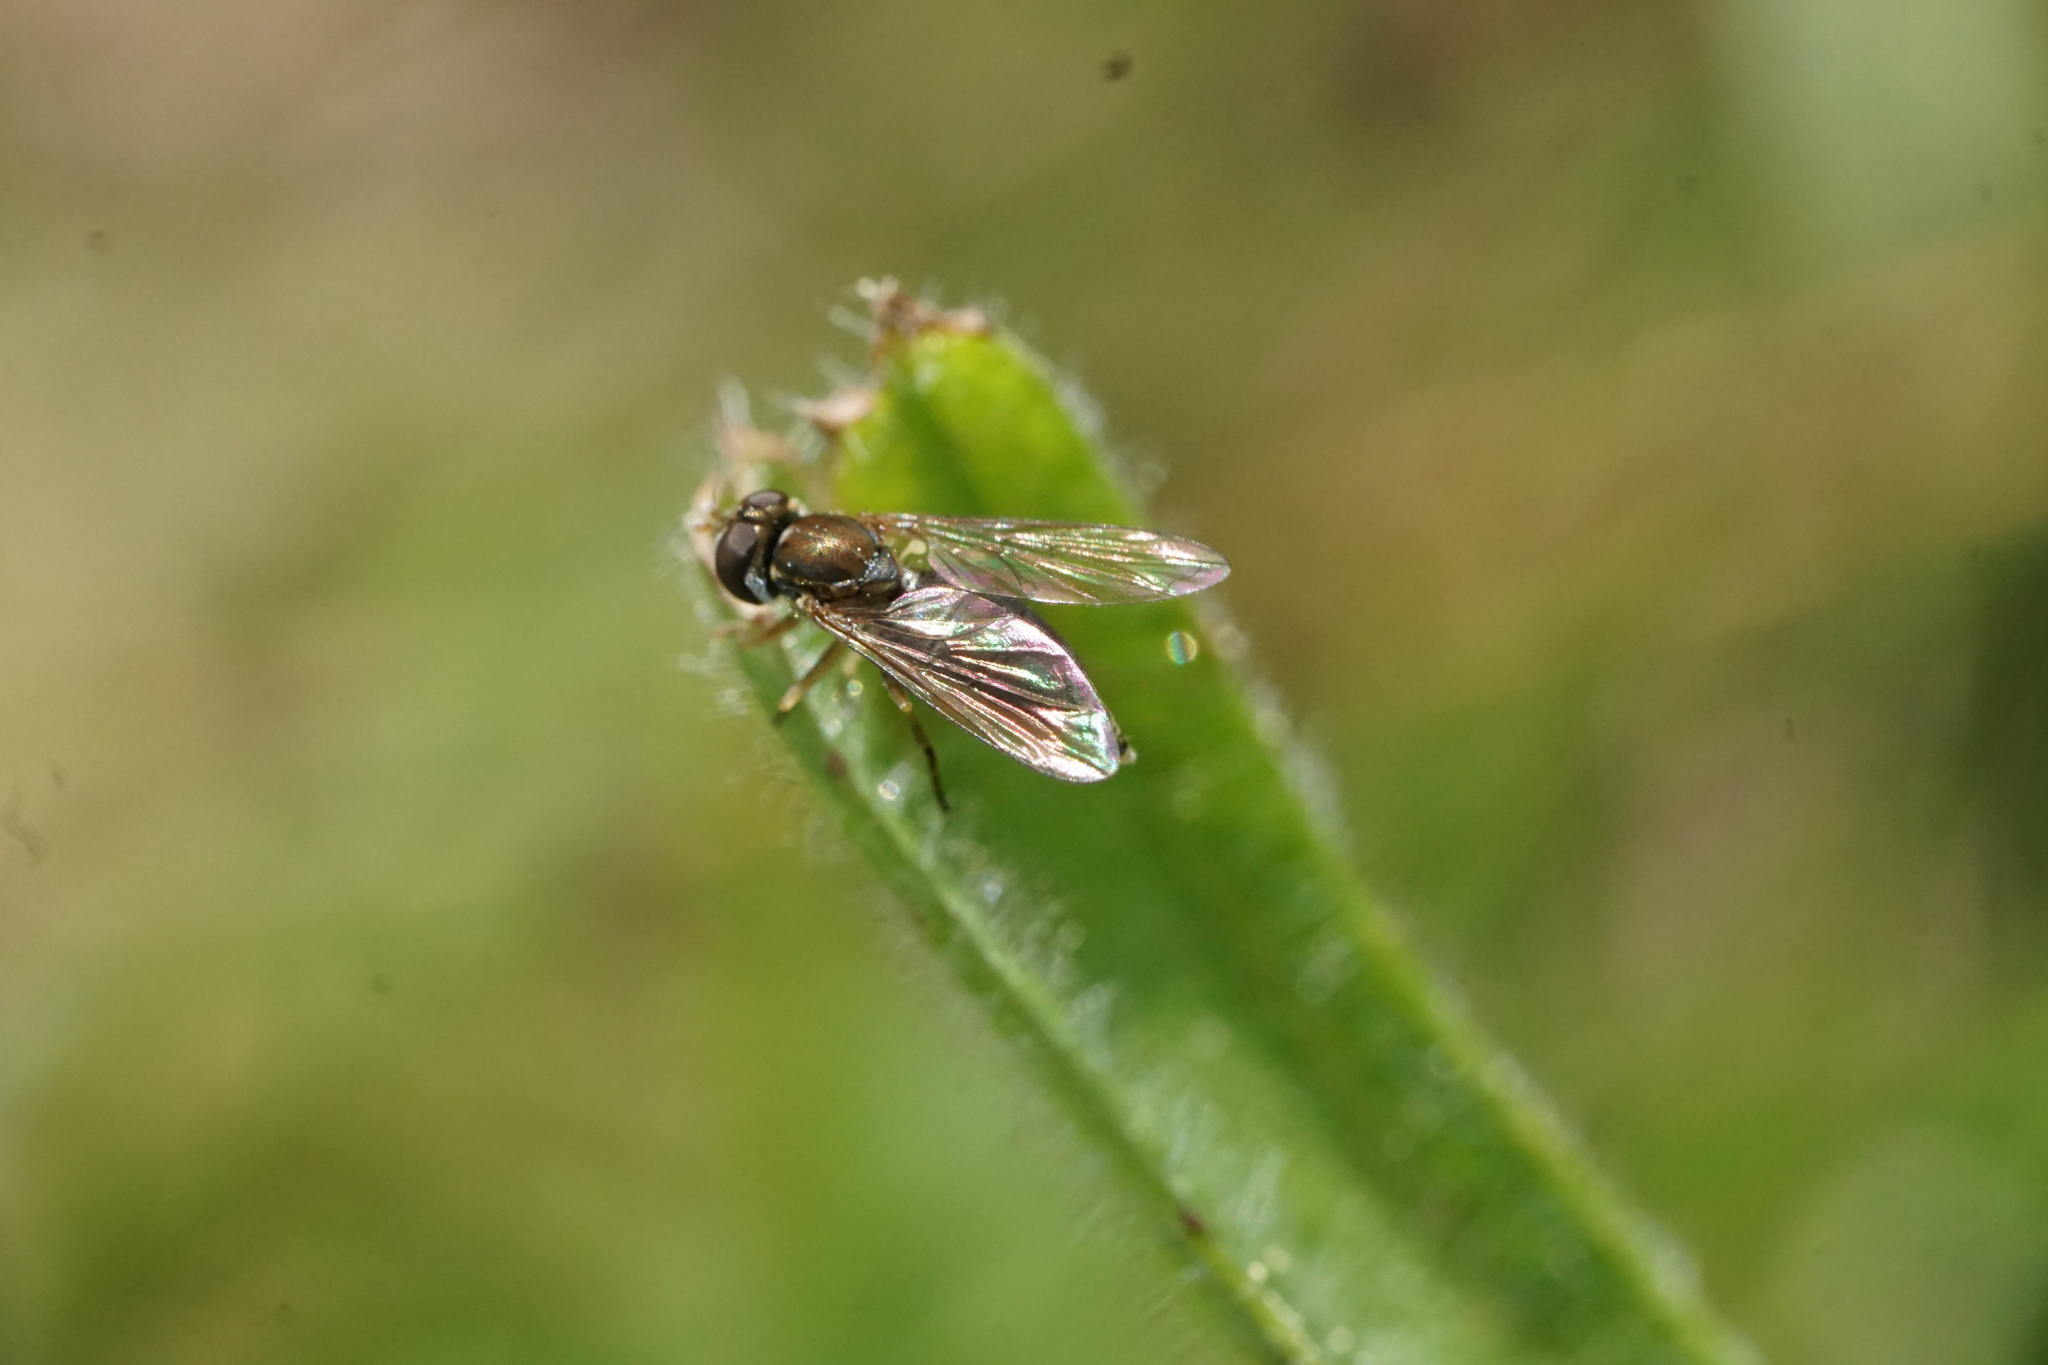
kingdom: Animalia
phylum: Arthropoda
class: Insecta
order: Diptera
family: Syrphidae
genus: Toxomerus
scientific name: Toxomerus marginatus
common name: Syrphid fly
